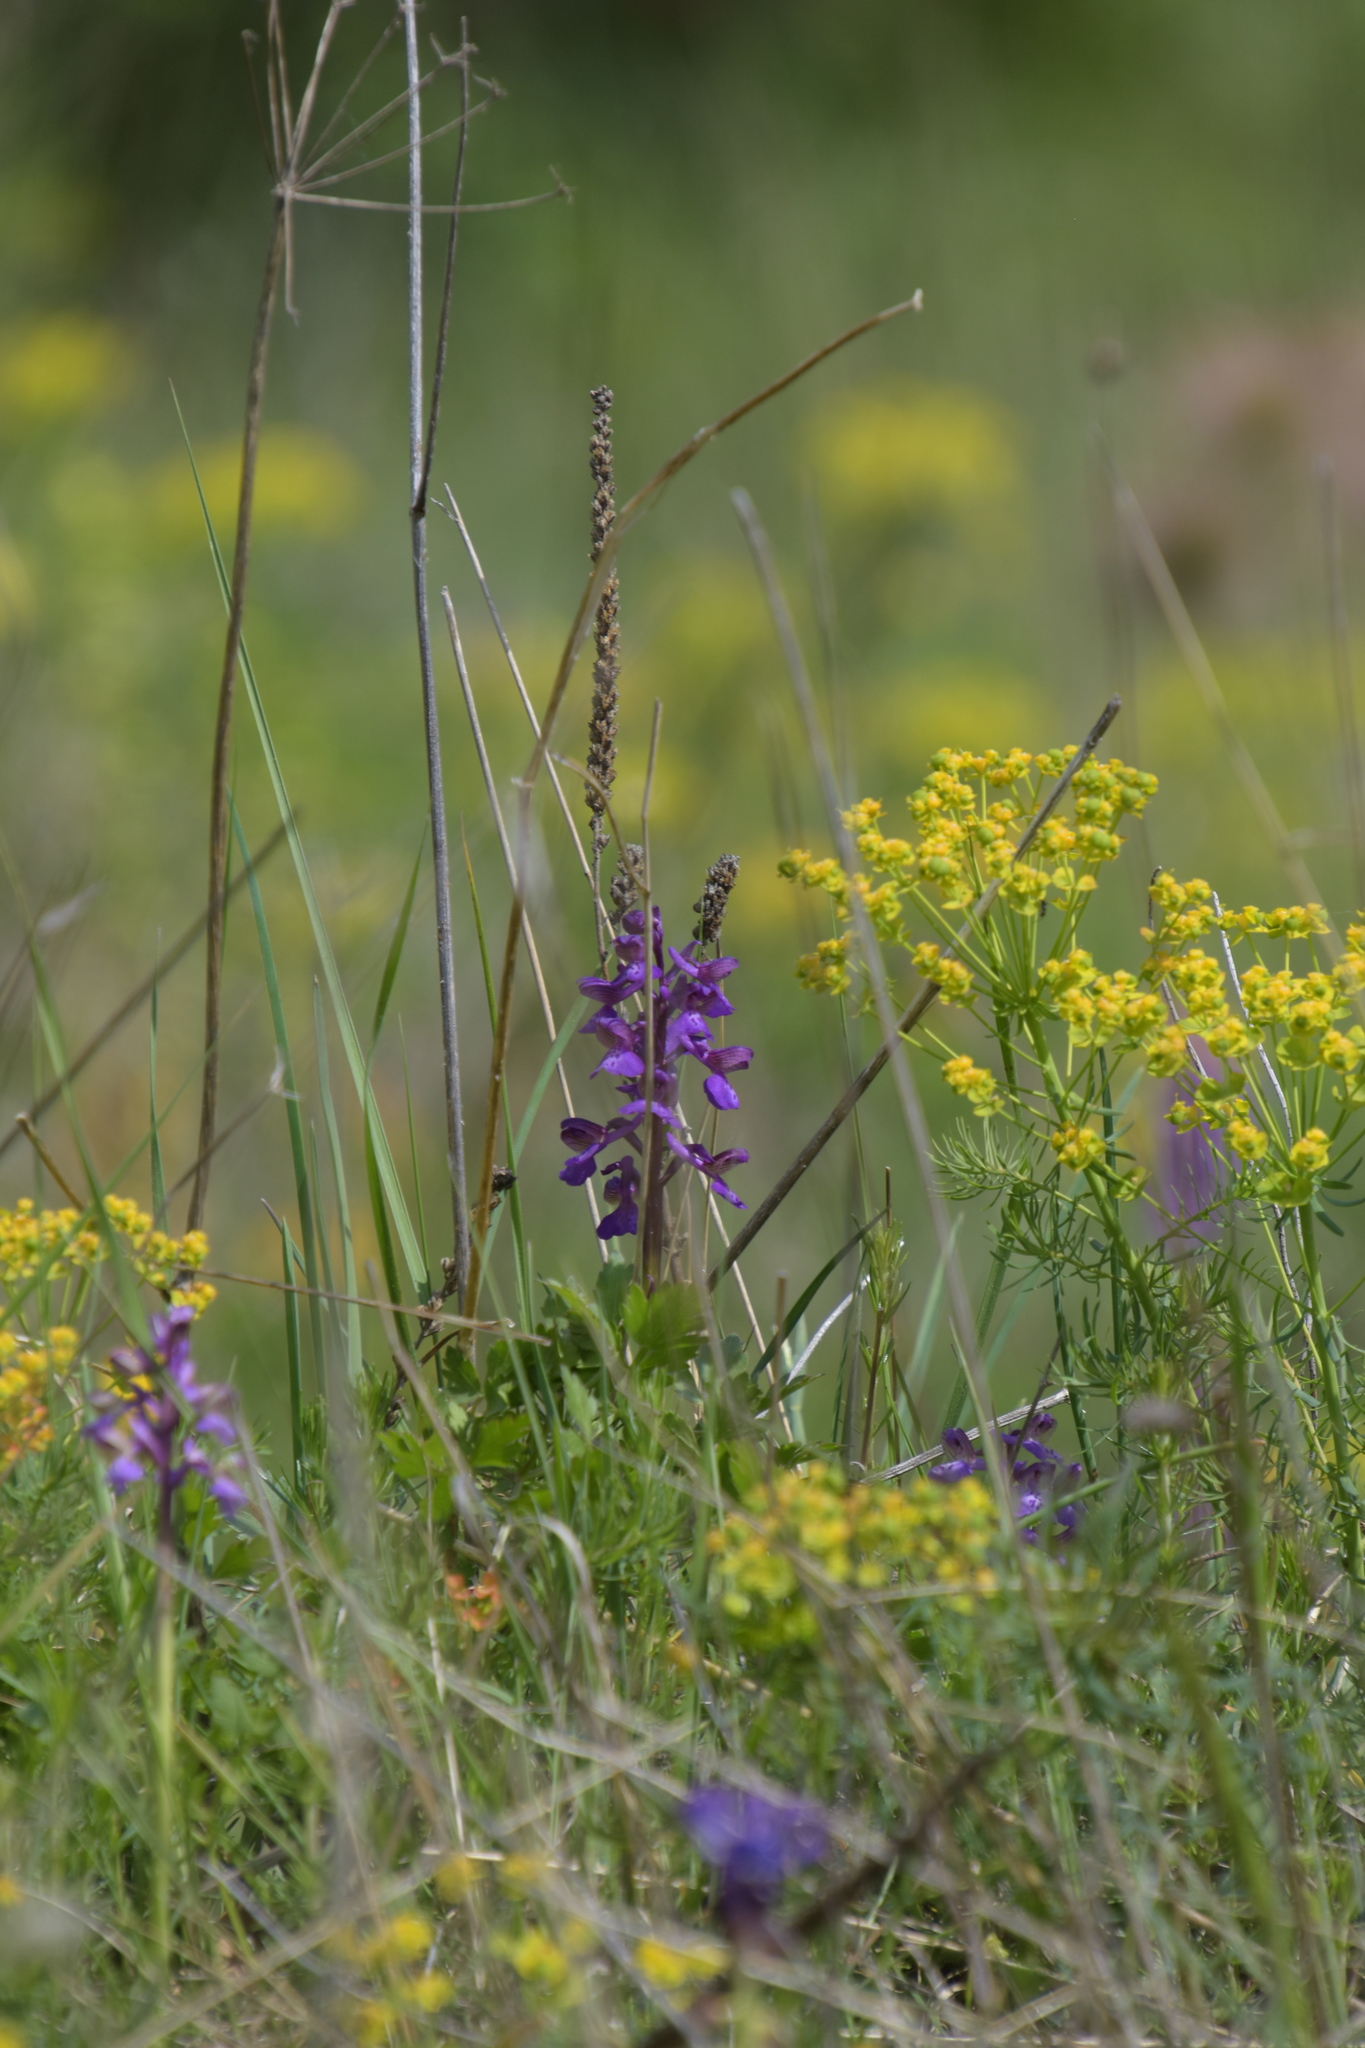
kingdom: Plantae
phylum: Tracheophyta
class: Liliopsida
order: Asparagales
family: Orchidaceae
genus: Anacamptis
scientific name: Anacamptis morio
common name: Green-winged orchid
